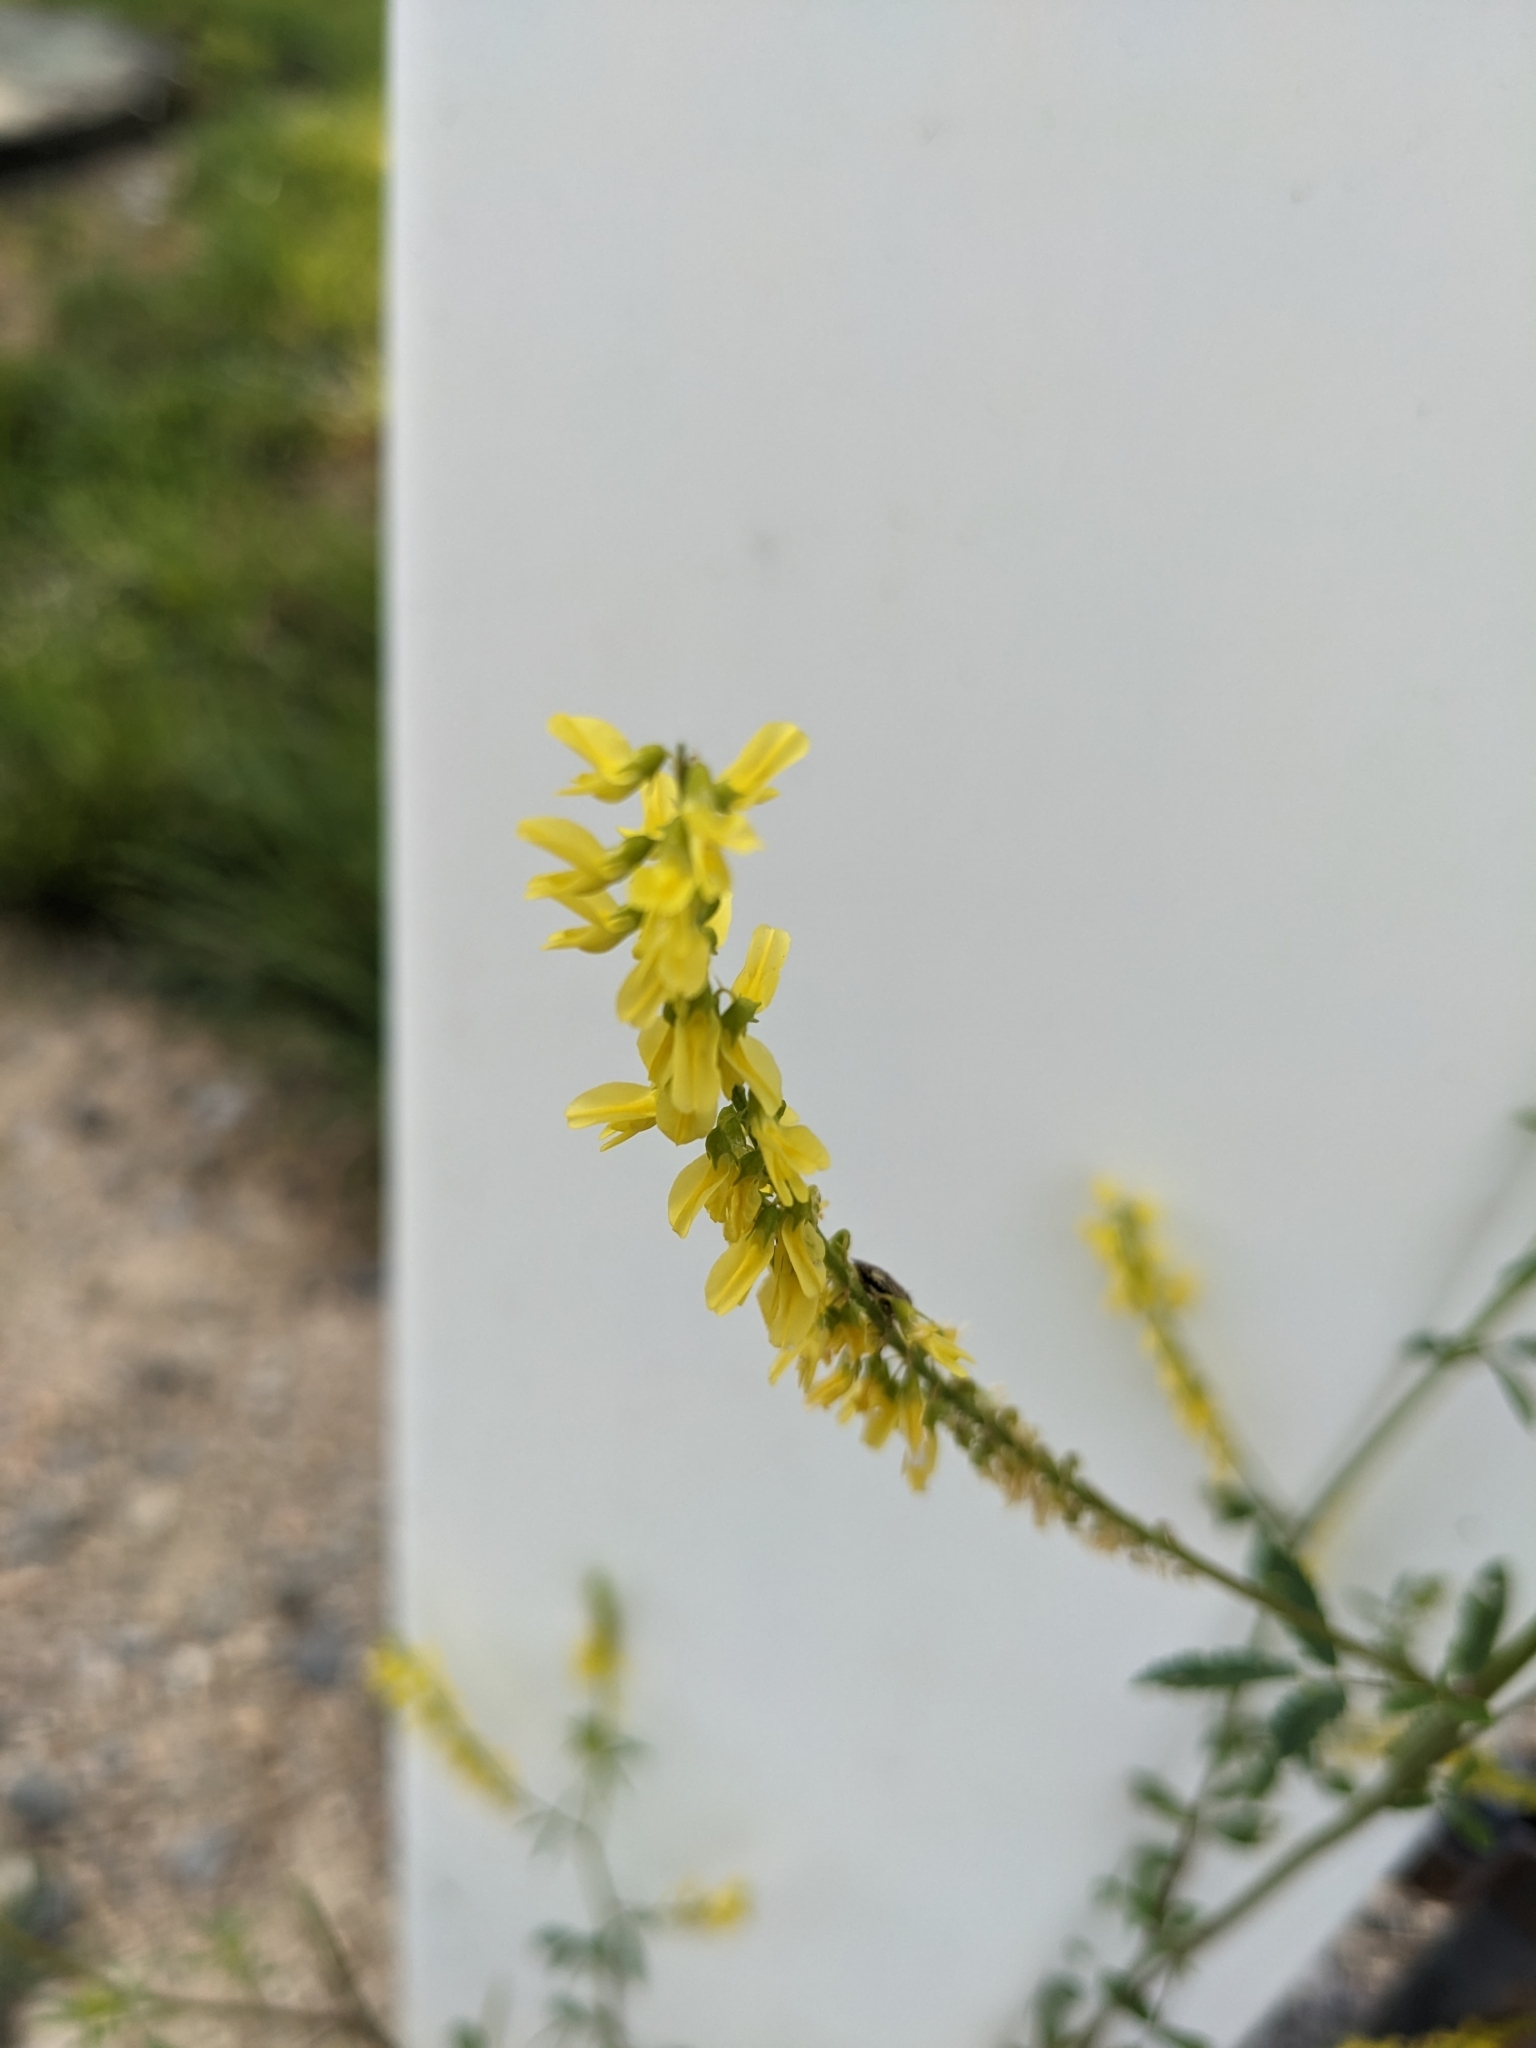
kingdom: Plantae
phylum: Tracheophyta
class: Magnoliopsida
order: Fabales
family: Fabaceae
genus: Melilotus
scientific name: Melilotus officinalis
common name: Sweetclover
